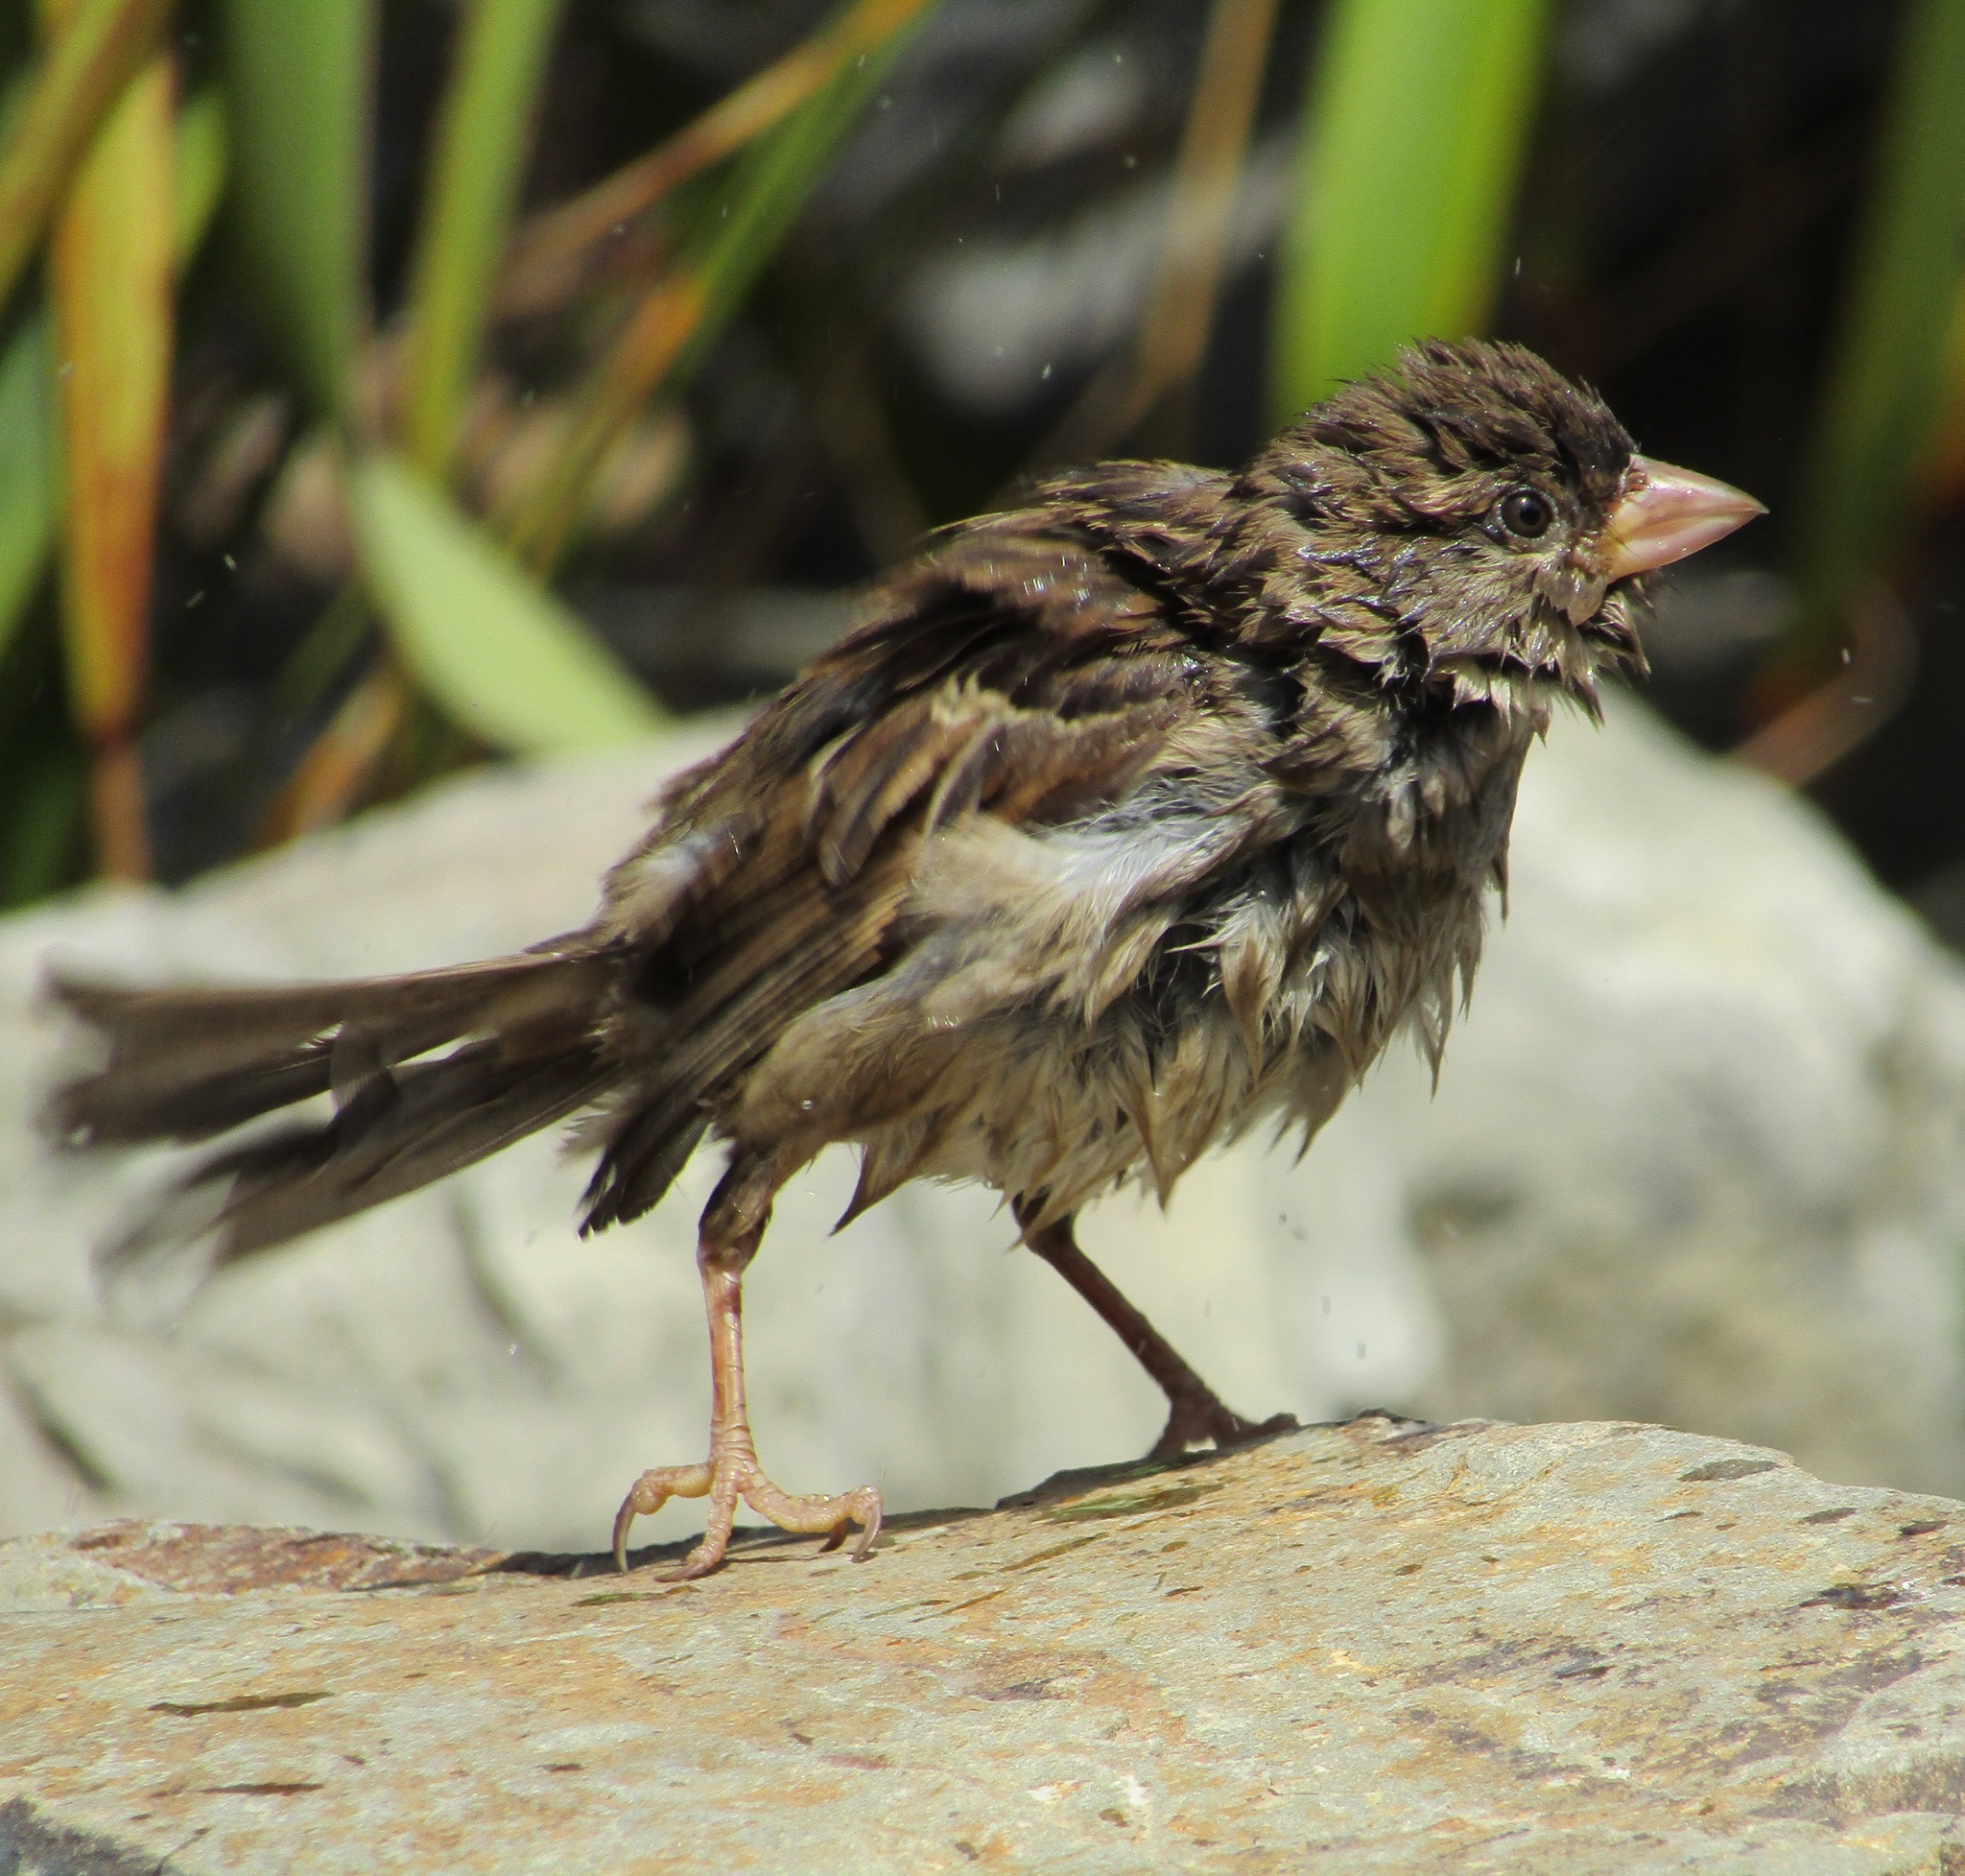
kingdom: Animalia
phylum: Chordata
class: Aves
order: Passeriformes
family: Passeridae
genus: Passer
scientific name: Passer domesticus
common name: House sparrow
